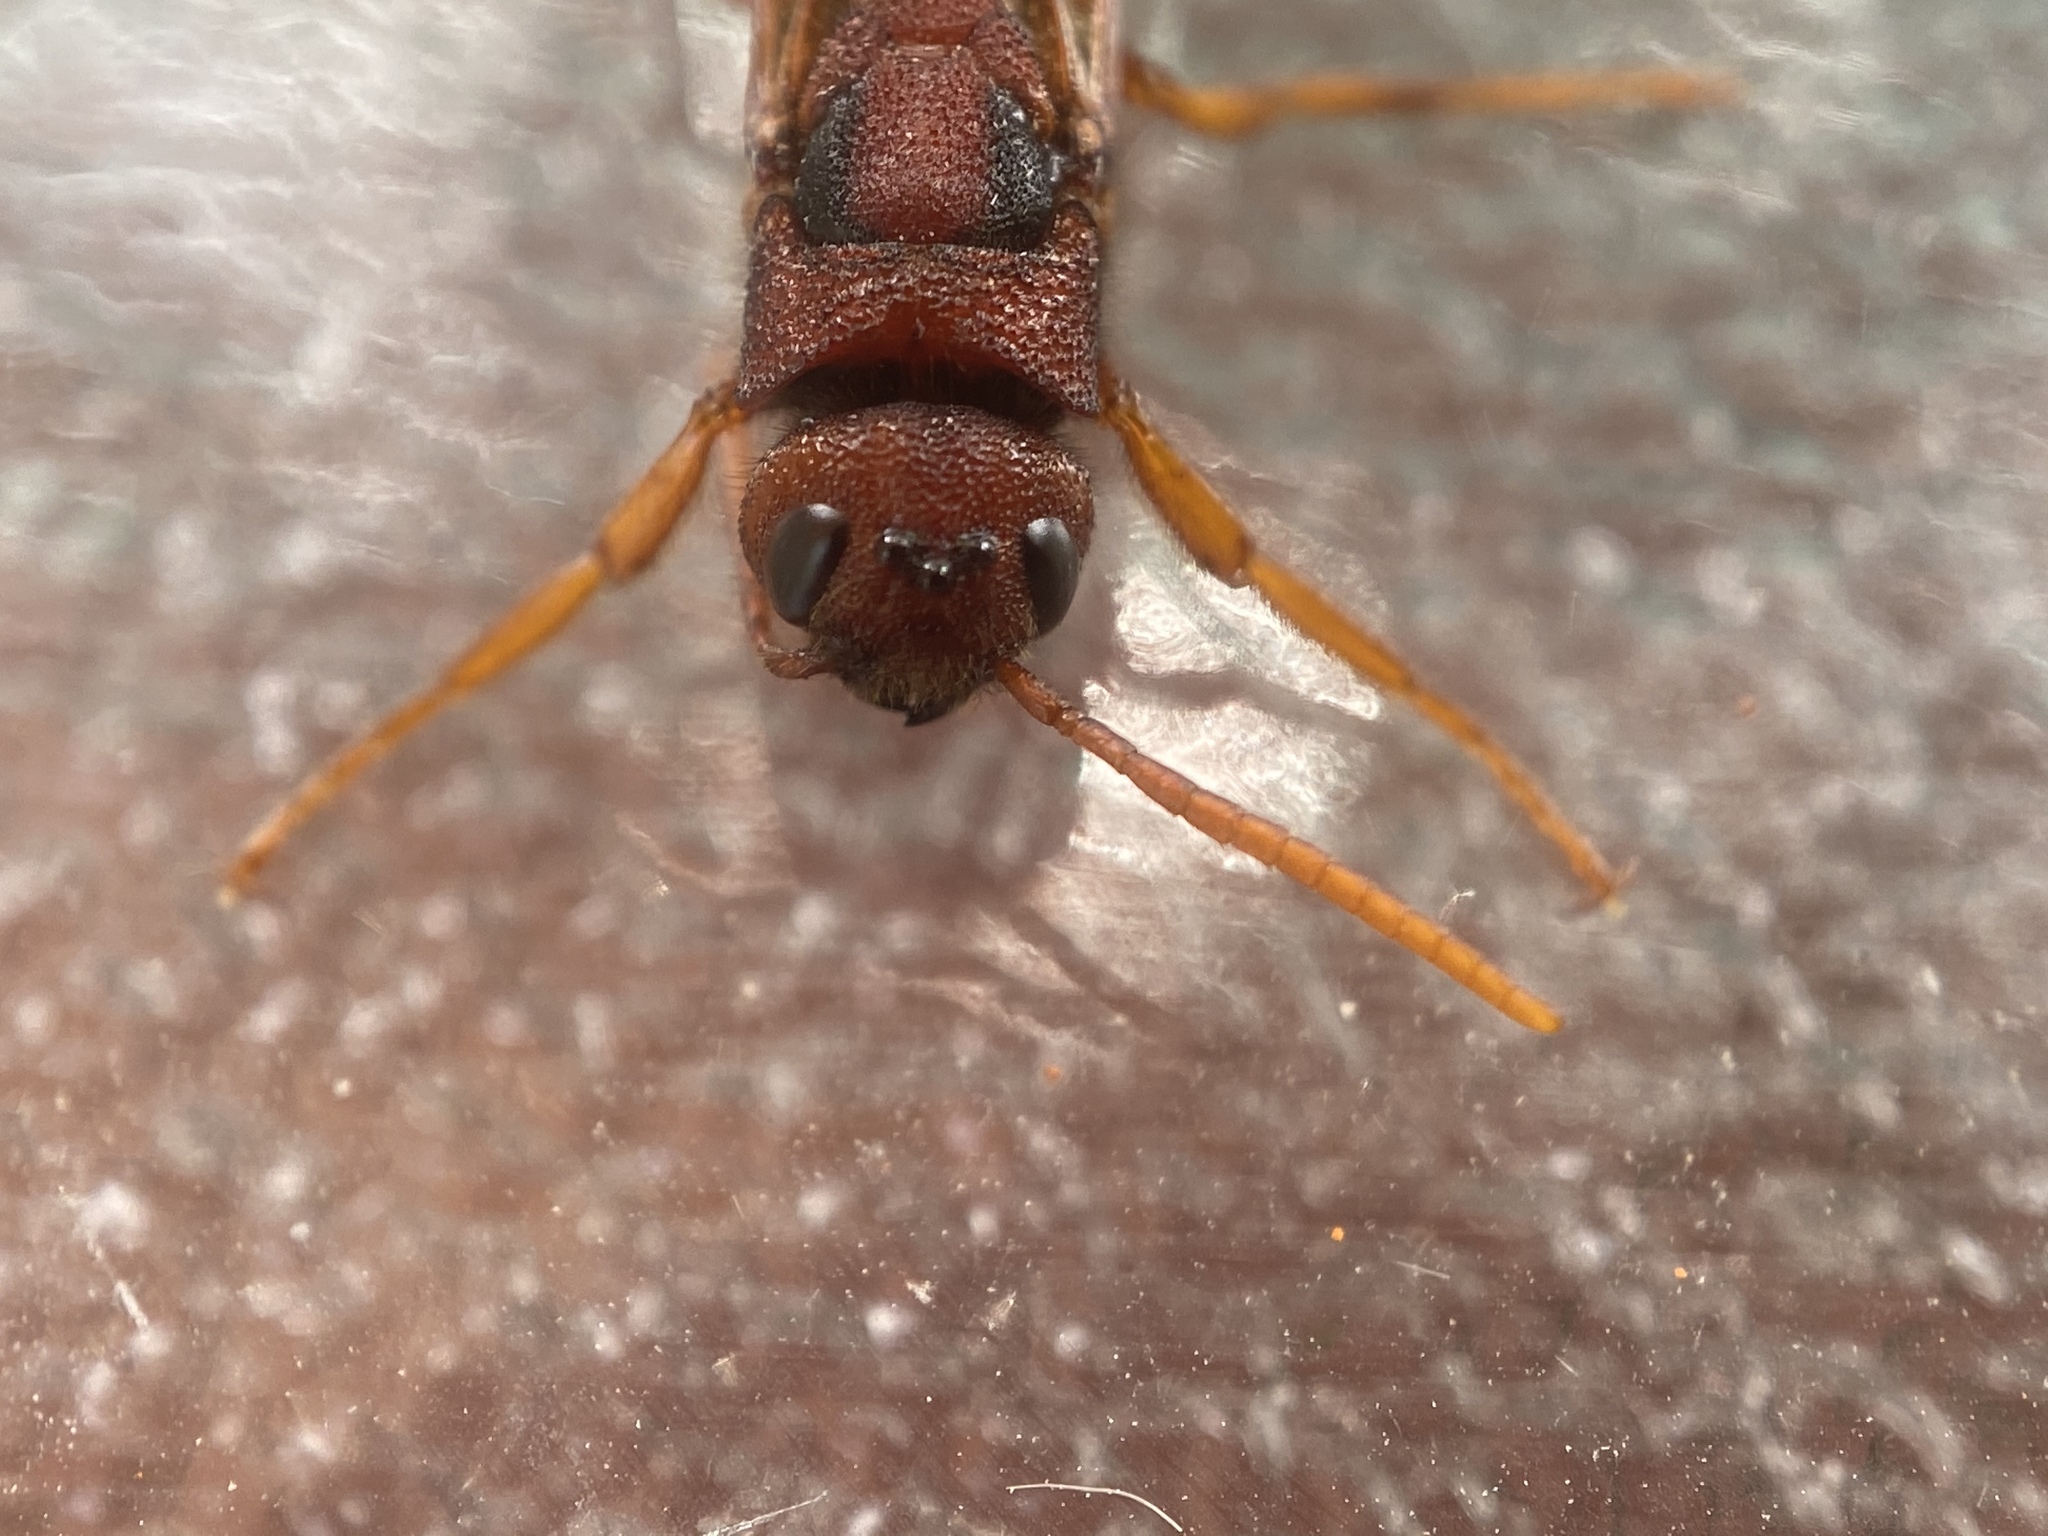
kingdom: Animalia
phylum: Arthropoda
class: Insecta
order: Hymenoptera
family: Siricidae
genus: Tremex
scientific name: Tremex columba
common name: Wasp
